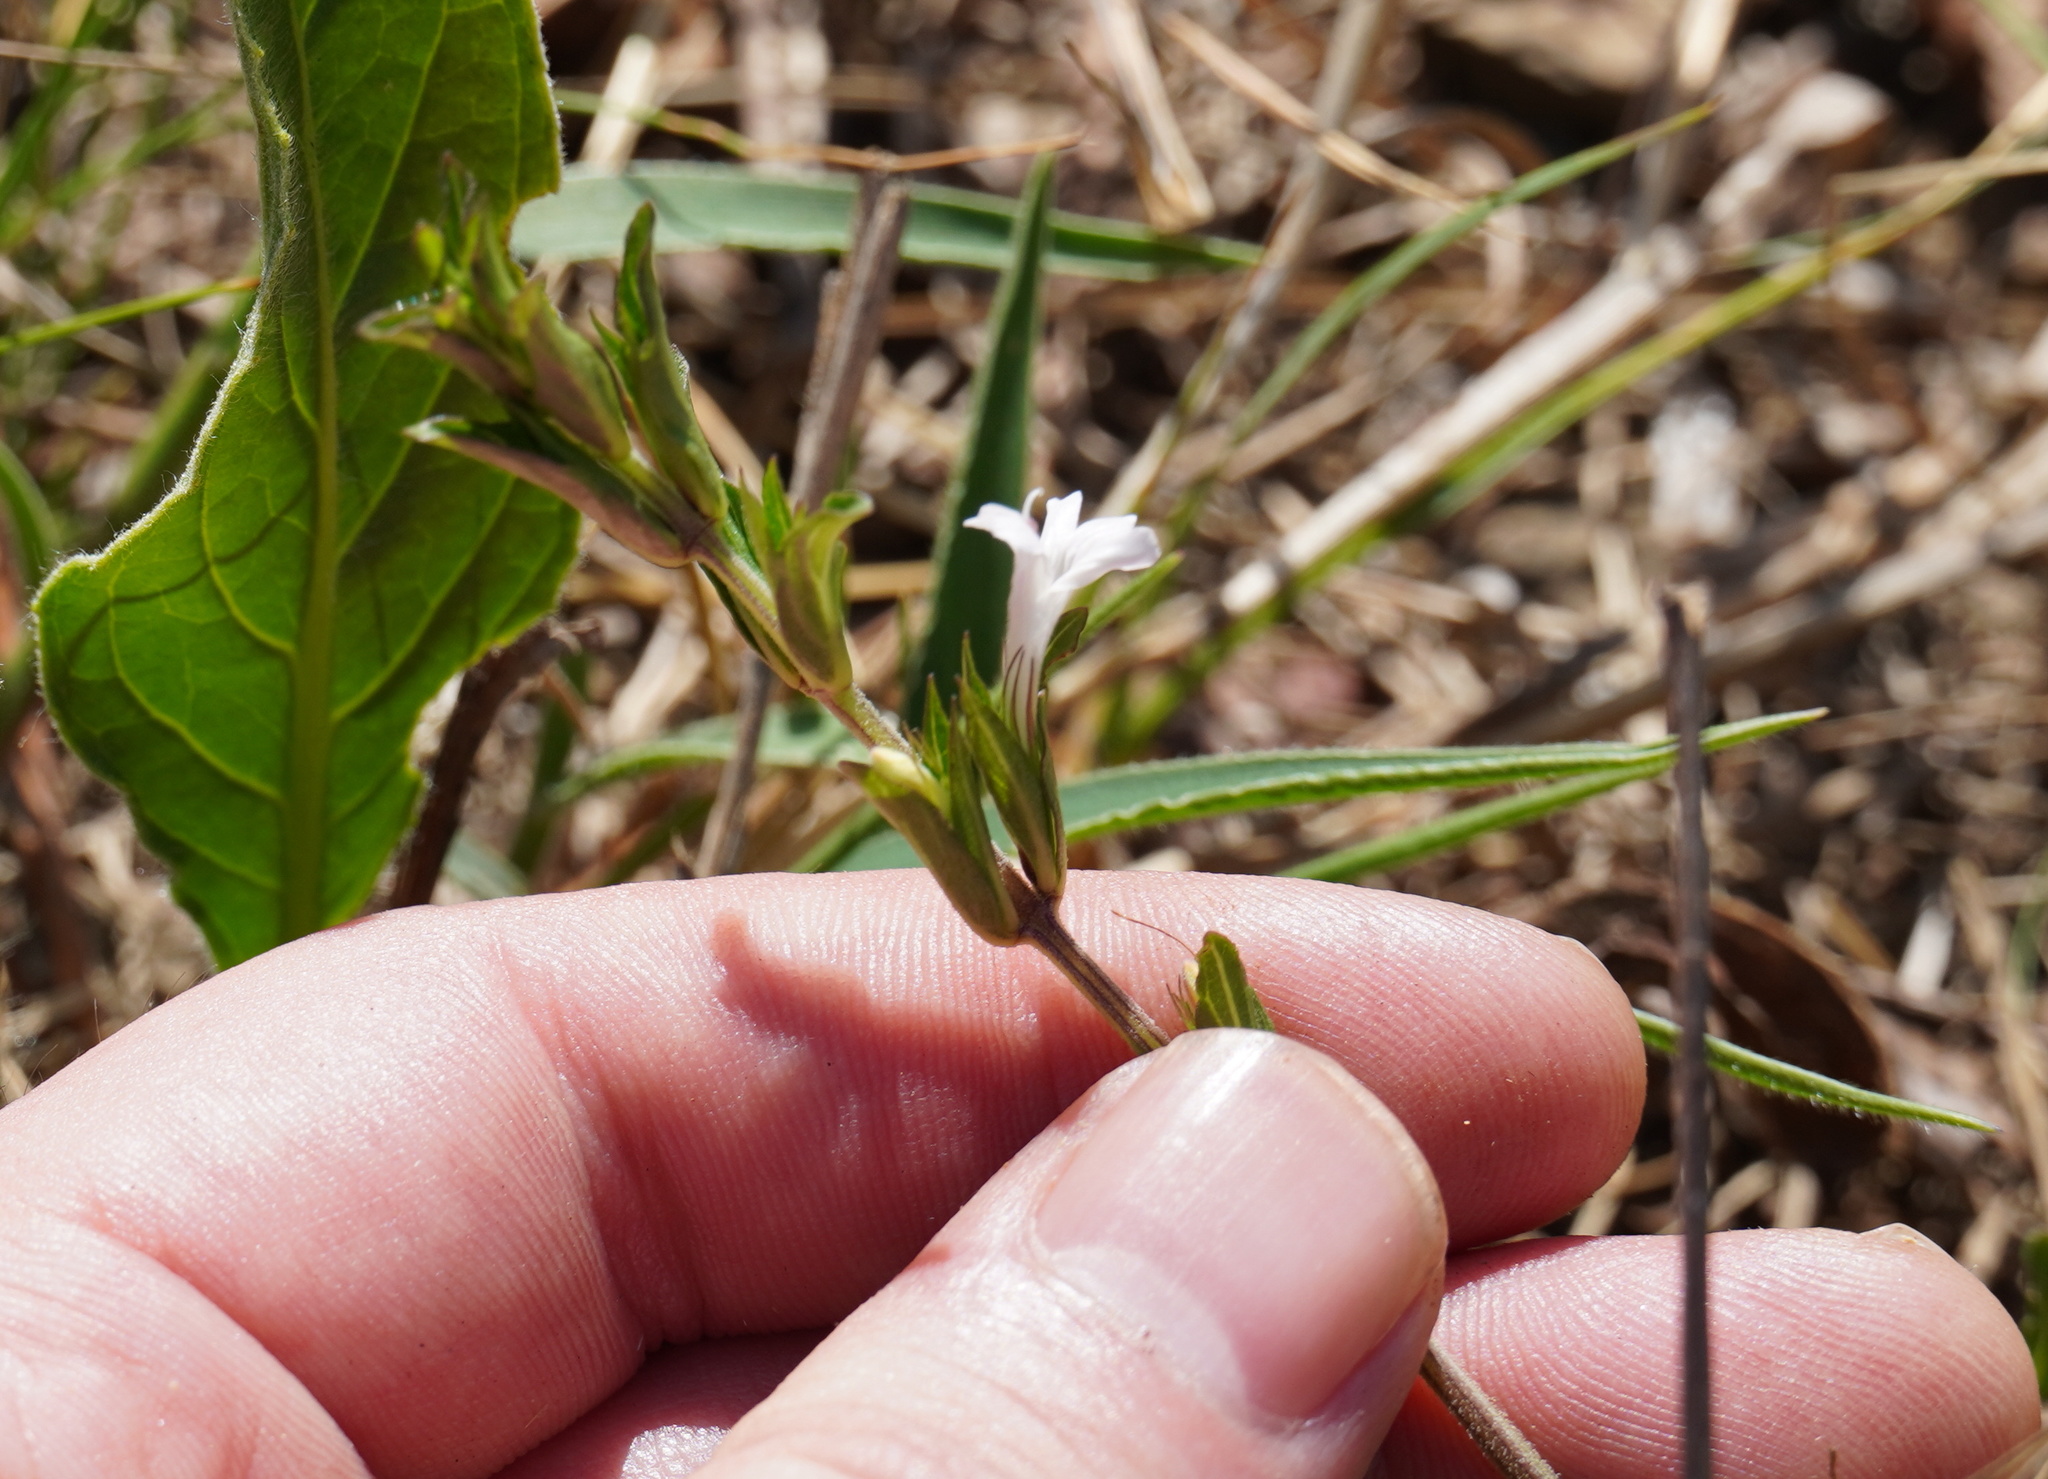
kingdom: Plantae
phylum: Tracheophyta
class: Magnoliopsida
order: Lamiales
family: Acanthaceae
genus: Dyschoriste
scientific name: Dyschoriste setigera
